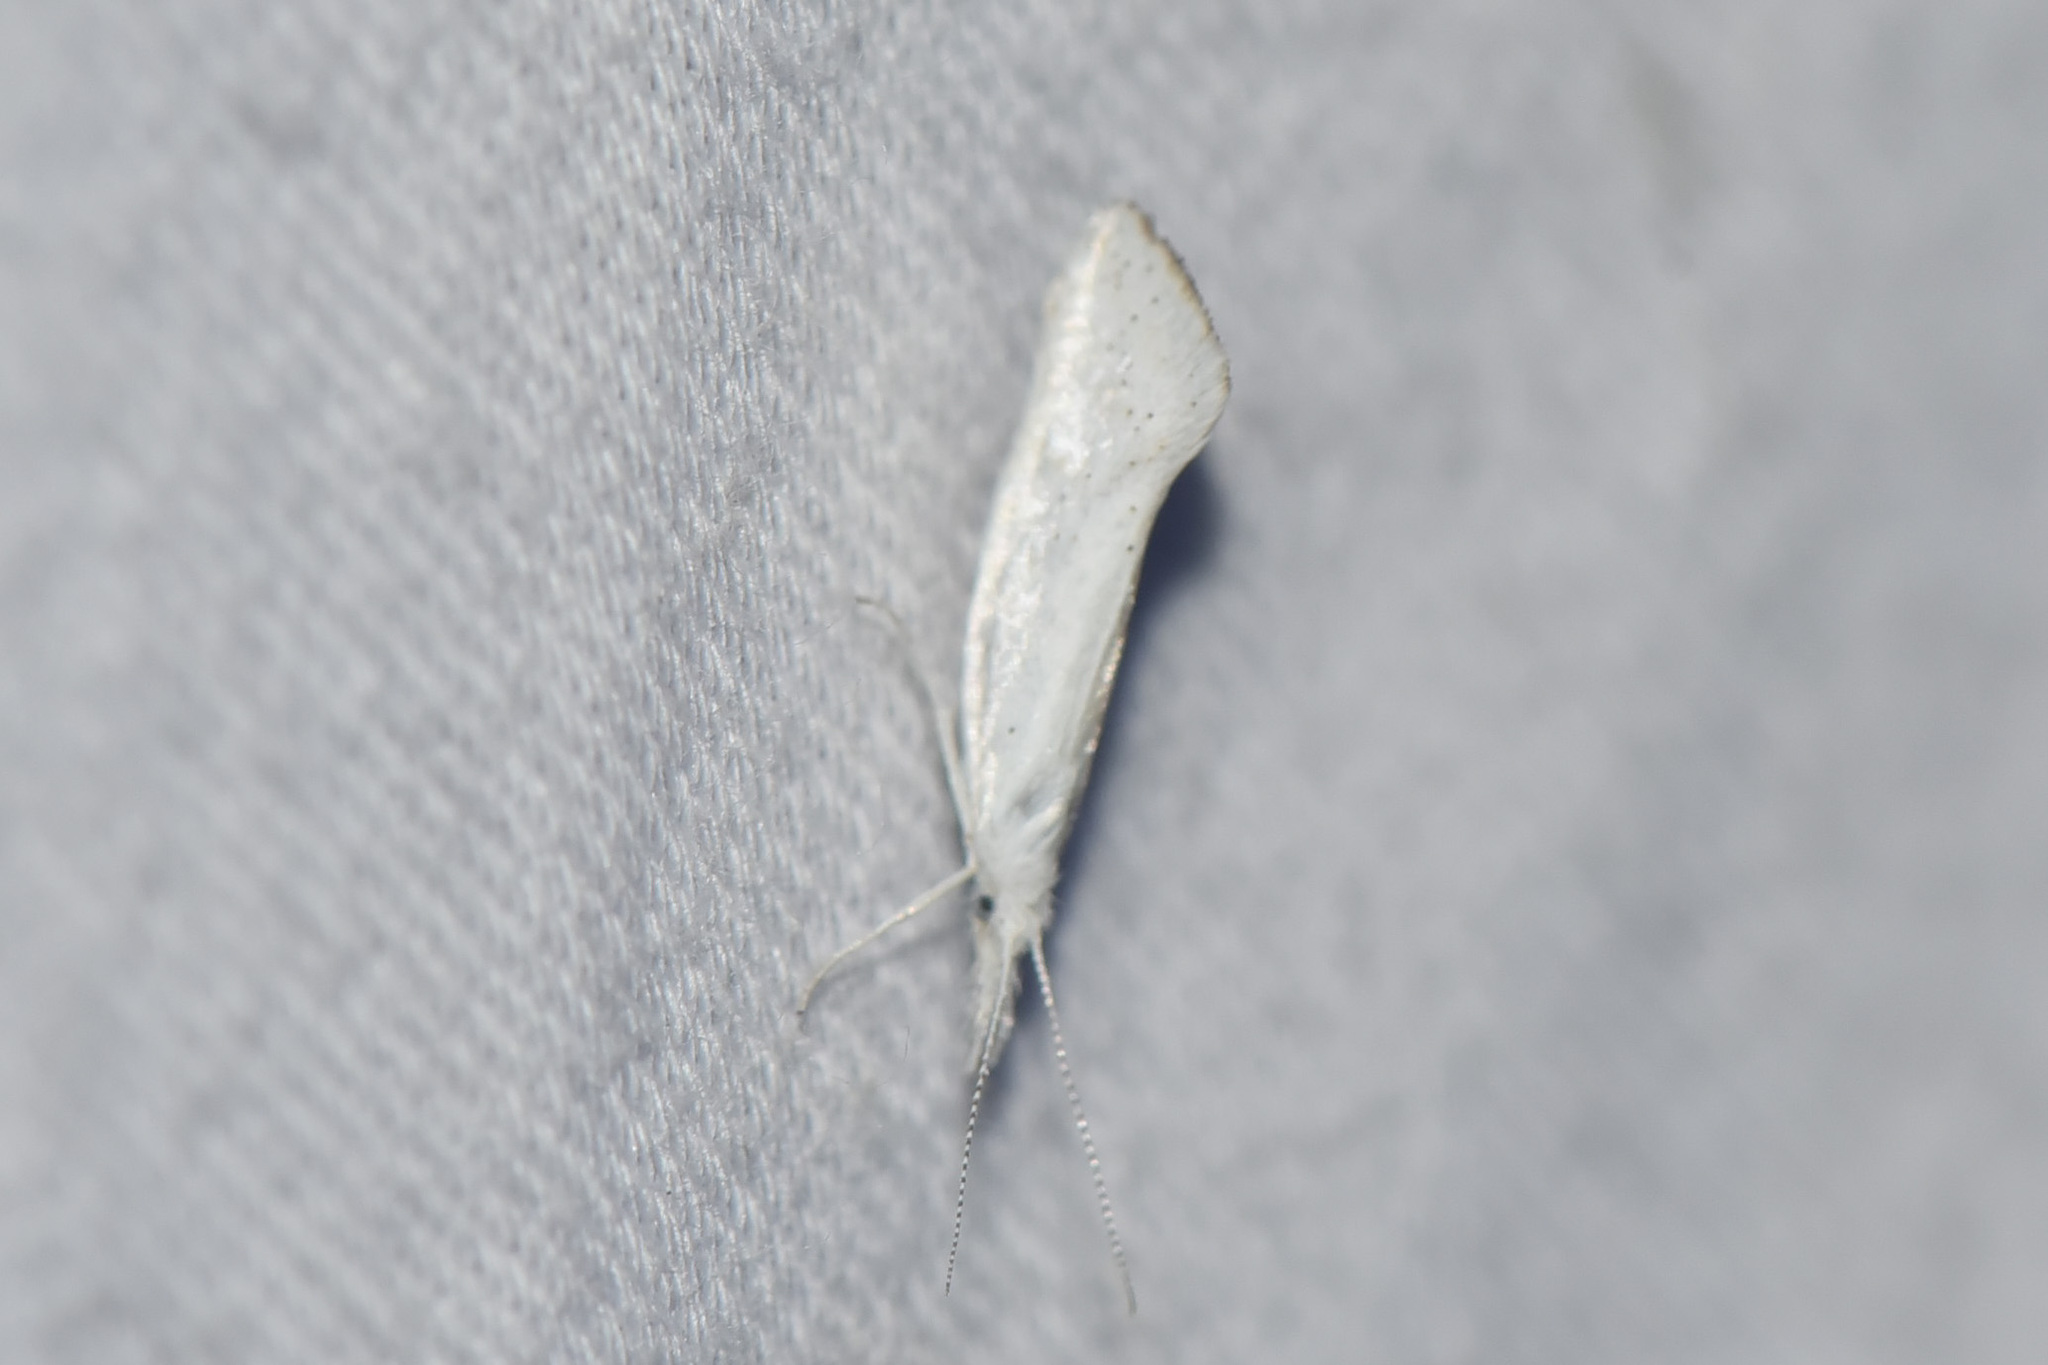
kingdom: Animalia
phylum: Arthropoda
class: Insecta
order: Lepidoptera
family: Ypsolophidae
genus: Euceratia
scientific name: Euceratia castella
